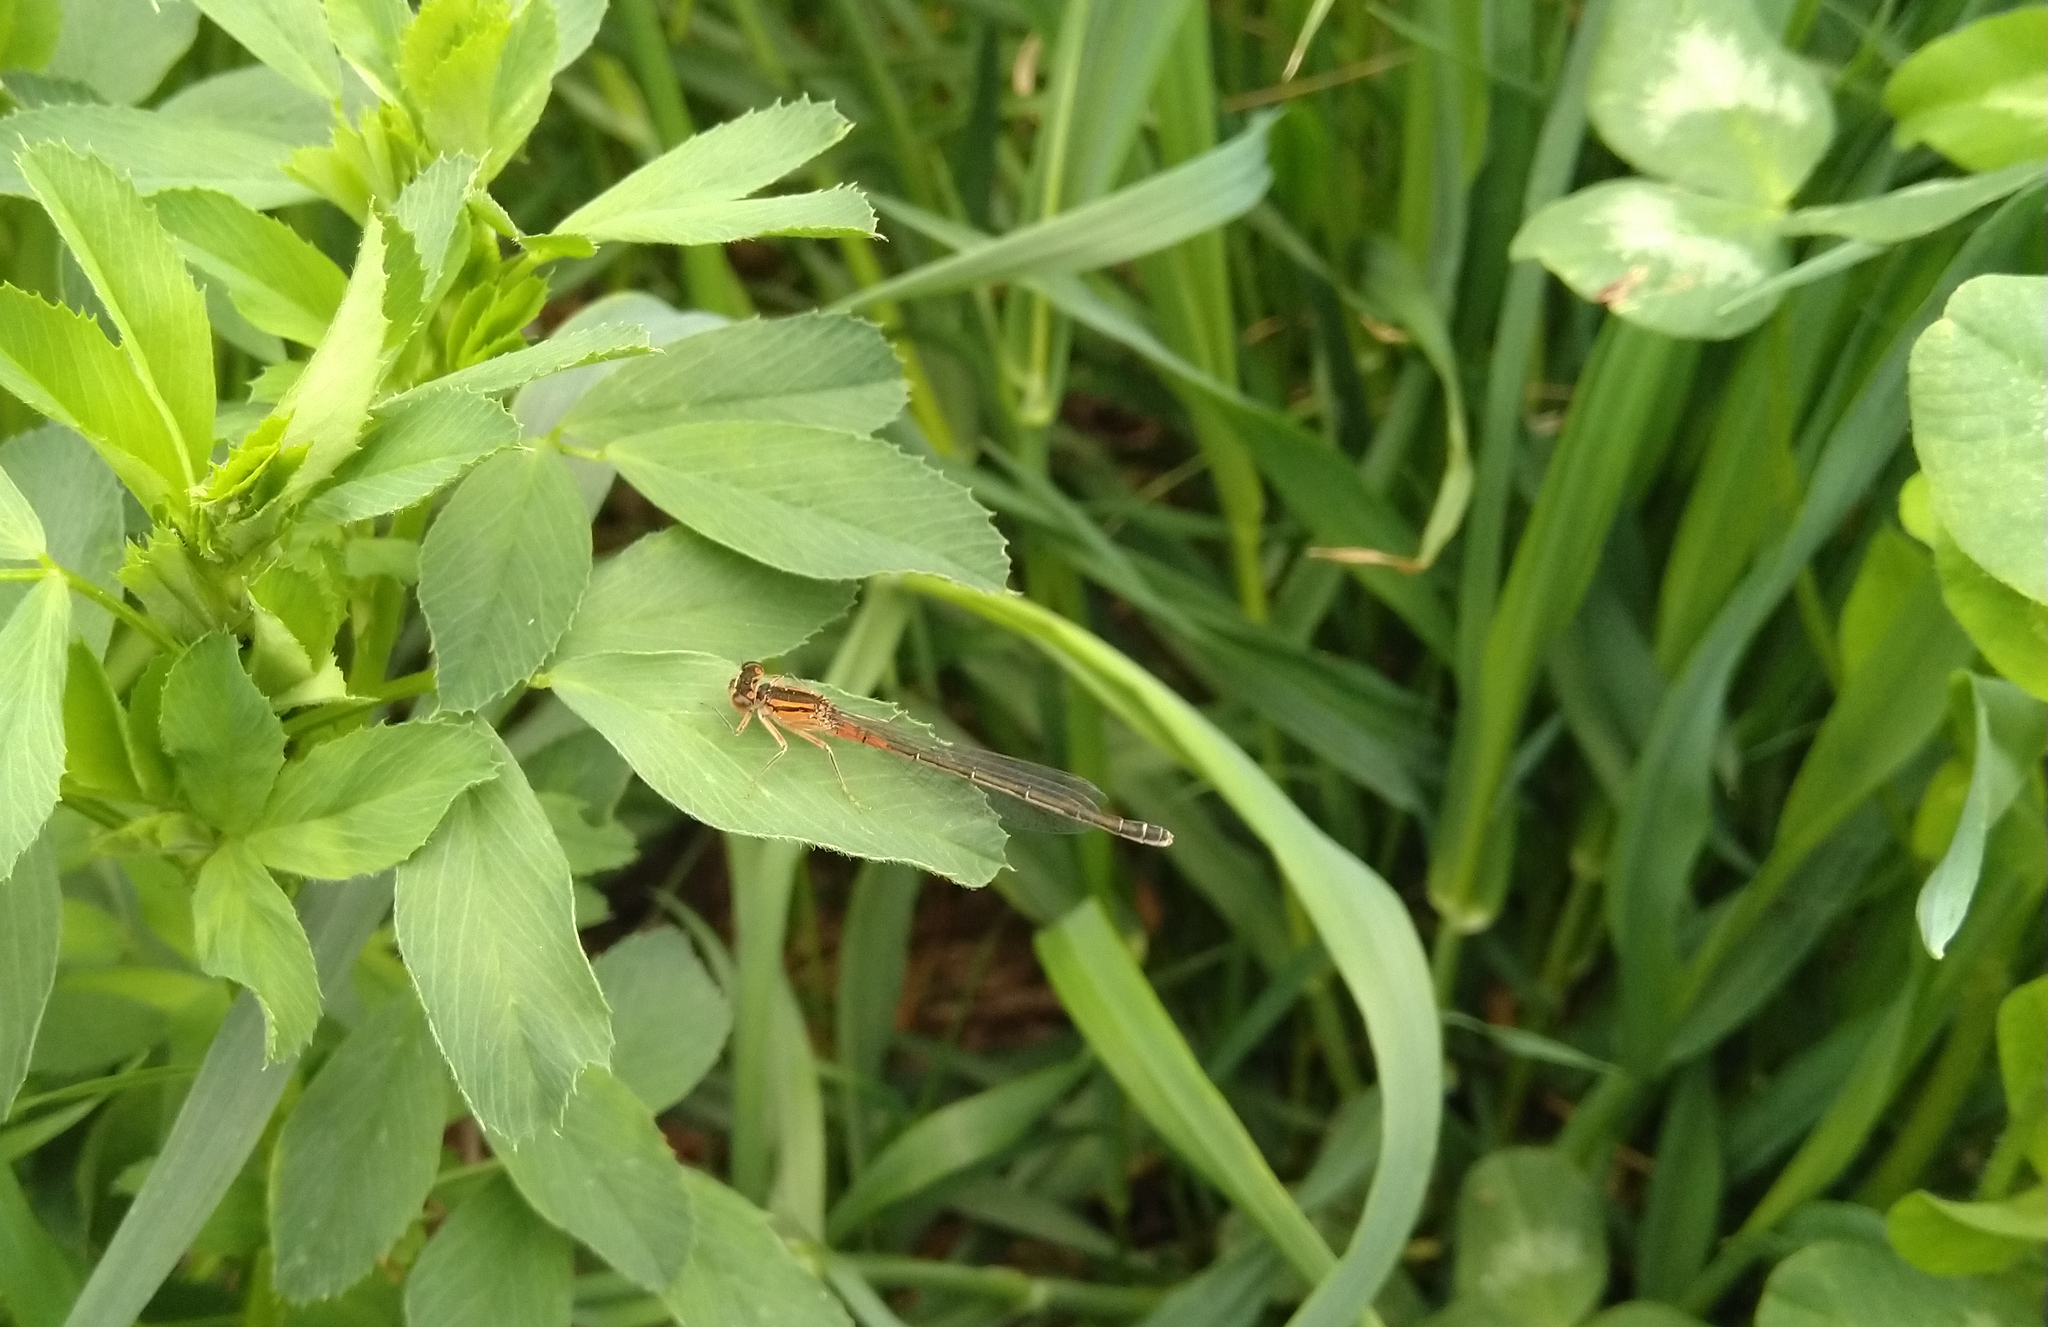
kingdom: Animalia
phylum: Arthropoda
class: Insecta
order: Odonata
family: Coenagrionidae
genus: Ischnura
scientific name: Ischnura verticalis
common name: Eastern forktail
